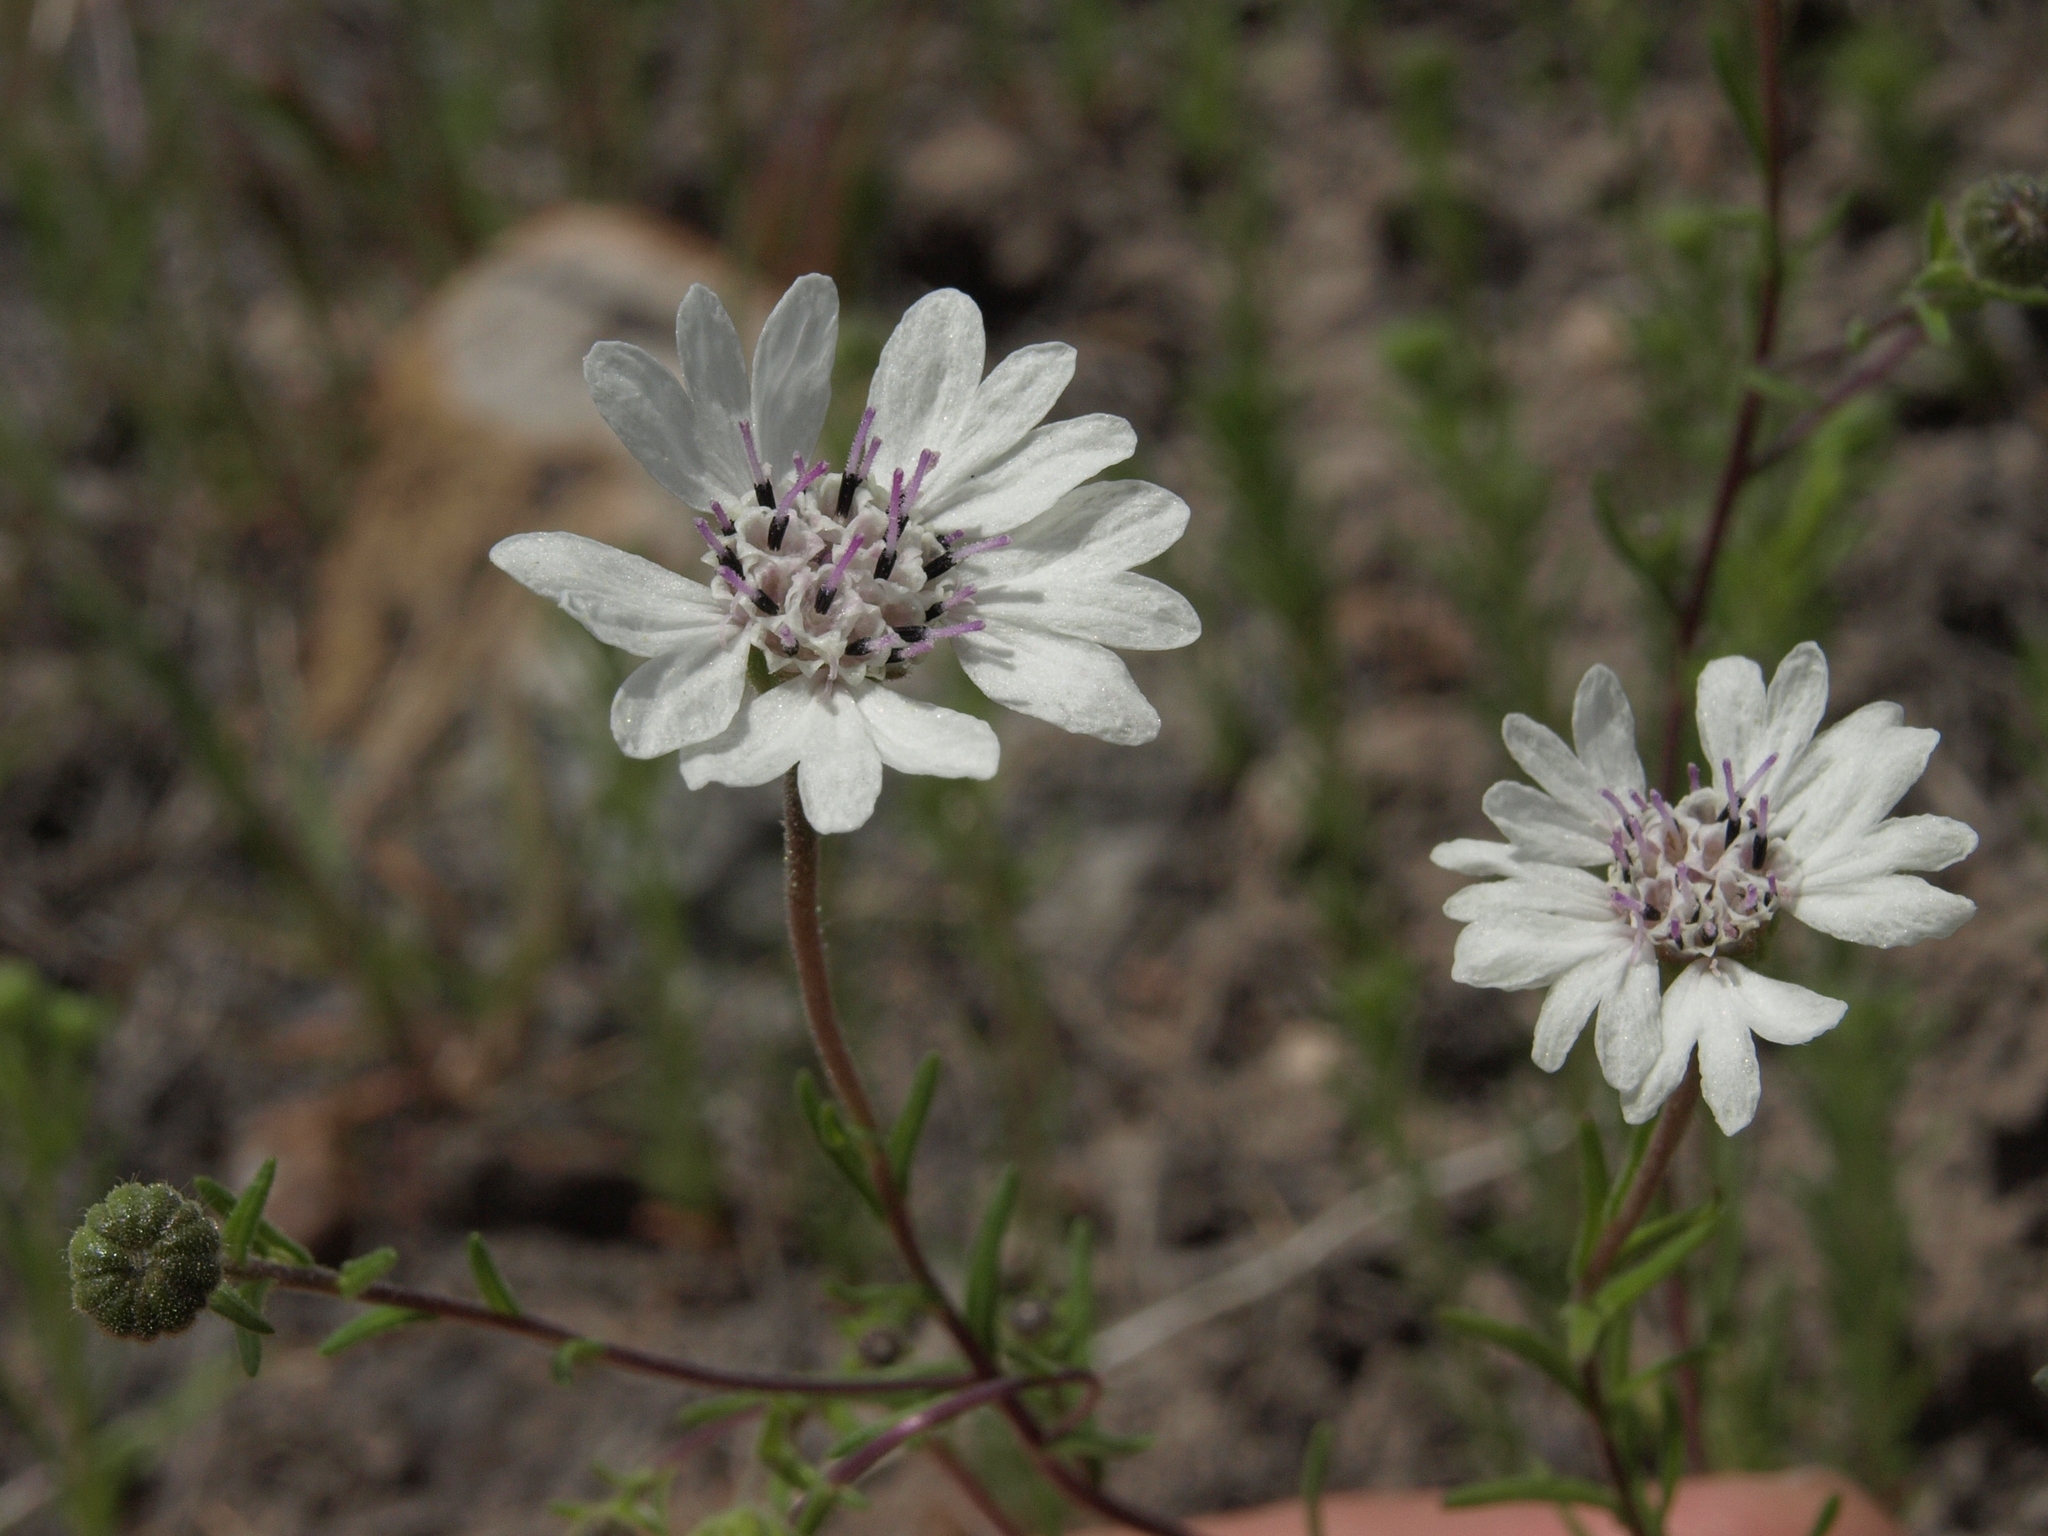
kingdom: Plantae
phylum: Tracheophyta
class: Magnoliopsida
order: Asterales
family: Asteraceae
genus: Blepharipappus
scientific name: Blepharipappus scaber
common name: Rough blepharipappus
